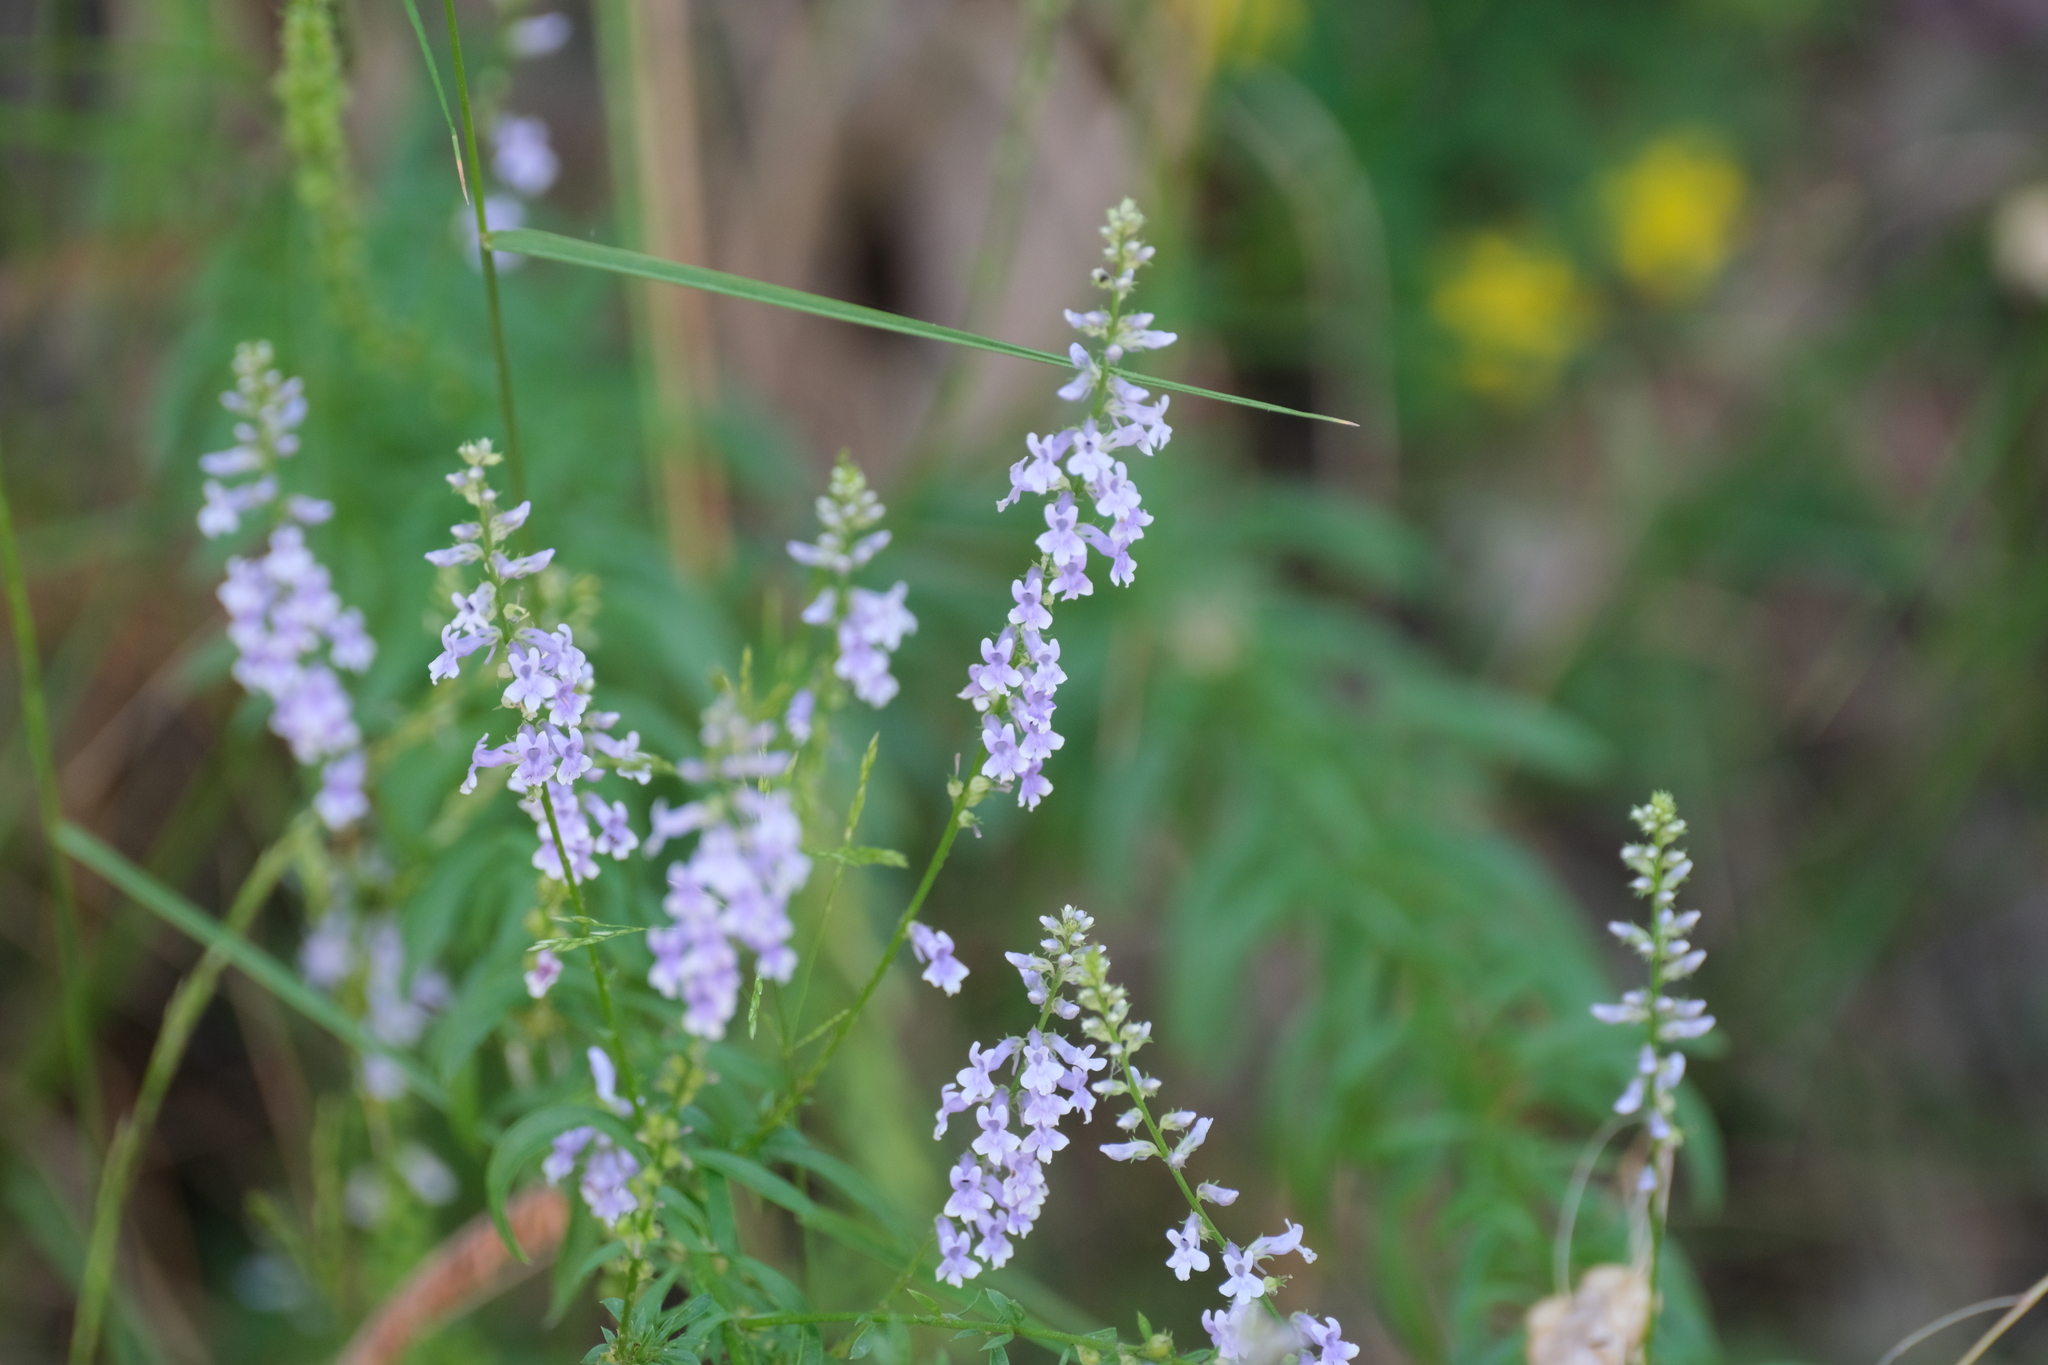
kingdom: Plantae
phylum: Tracheophyta
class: Magnoliopsida
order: Lamiales
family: Plantaginaceae
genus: Anarrhinum
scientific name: Anarrhinum bellidifolium
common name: Daisy-leaved toadflax
